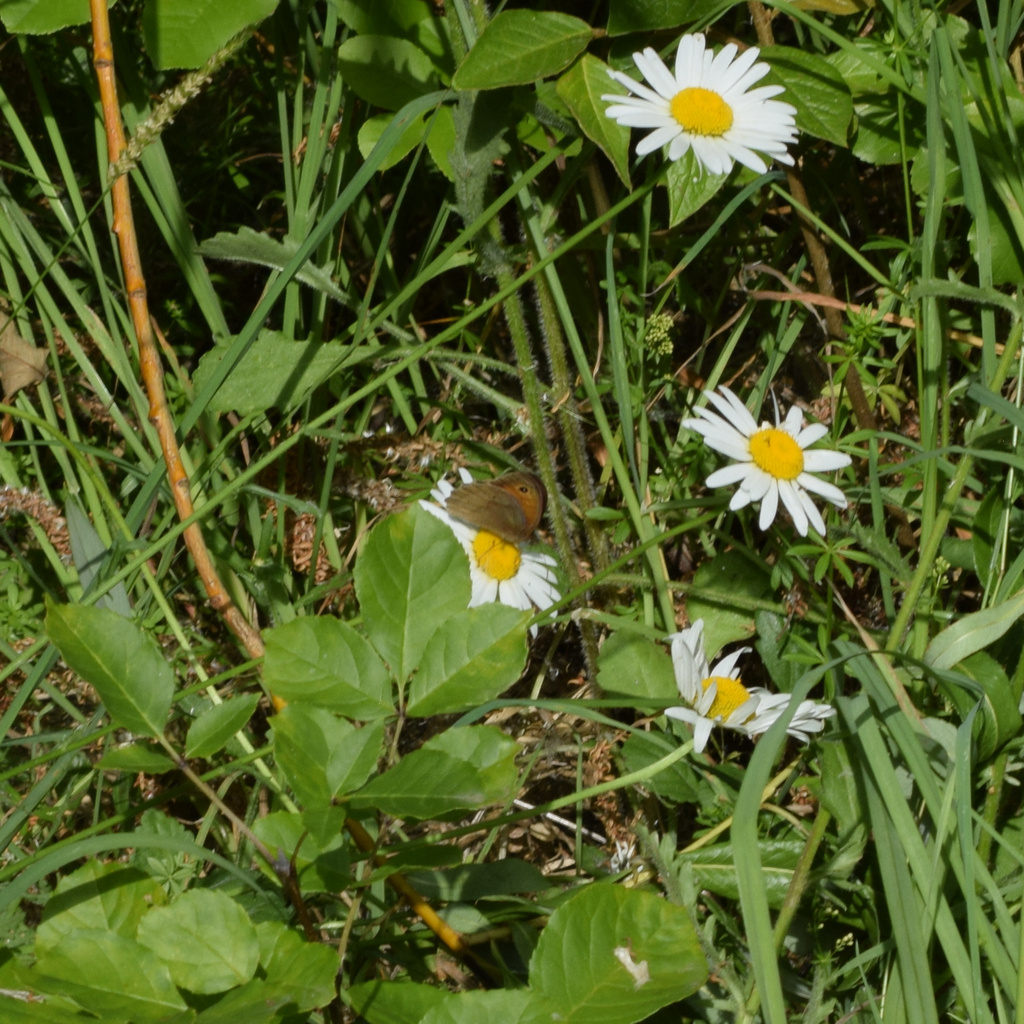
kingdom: Animalia
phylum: Arthropoda
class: Insecta
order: Lepidoptera
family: Nymphalidae
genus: Maniola
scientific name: Maniola jurtina
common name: Meadow brown
